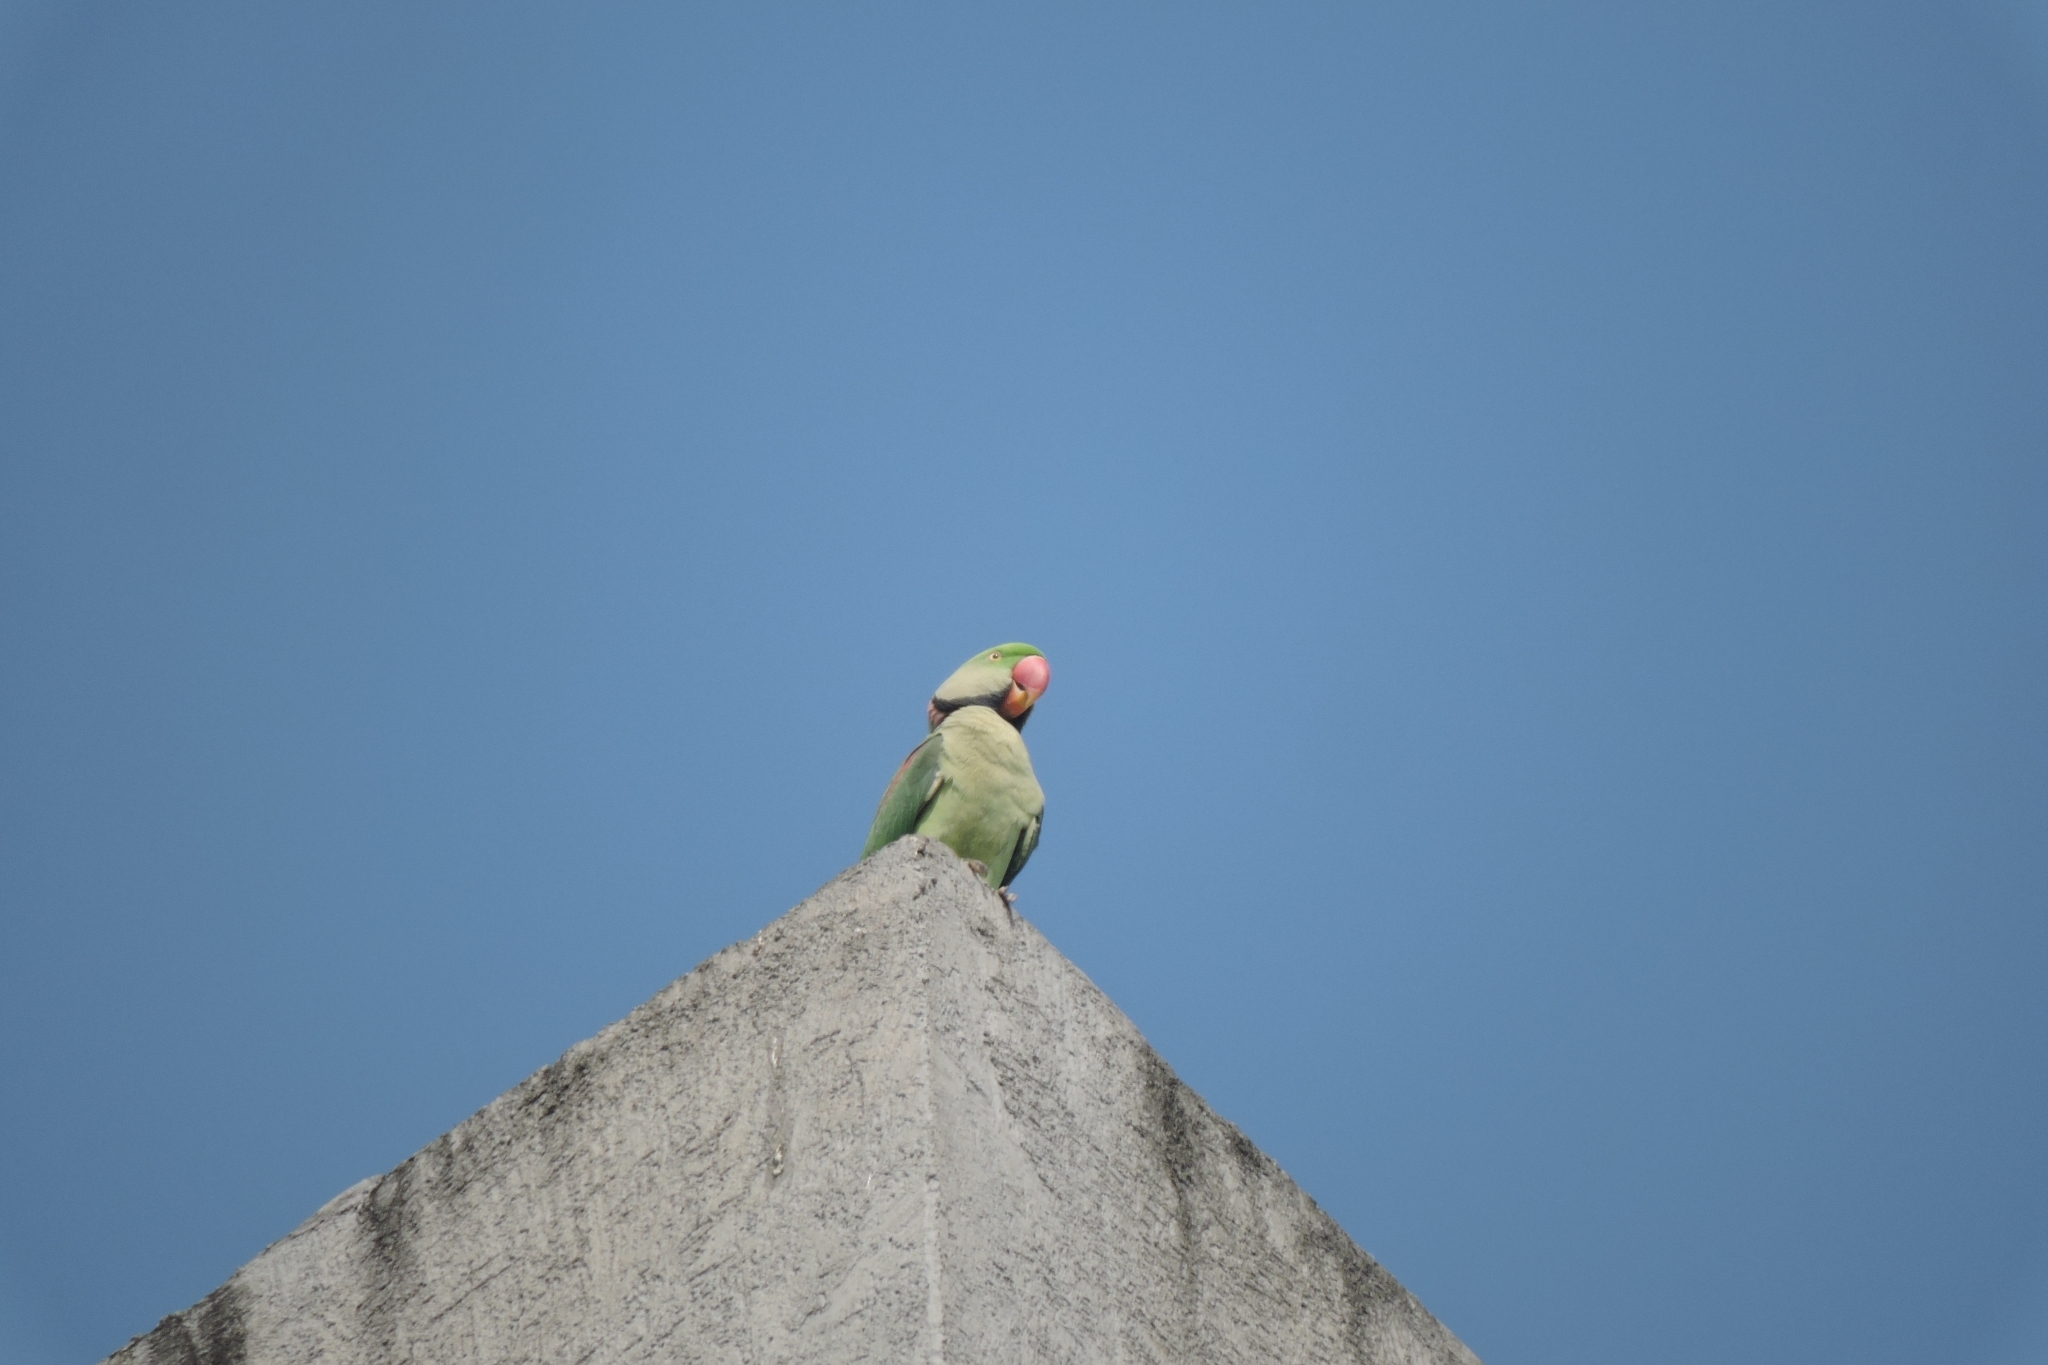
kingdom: Animalia
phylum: Chordata
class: Aves
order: Psittaciformes
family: Psittacidae
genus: Psittacula
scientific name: Psittacula eupatria
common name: Alexandrine parakeet
